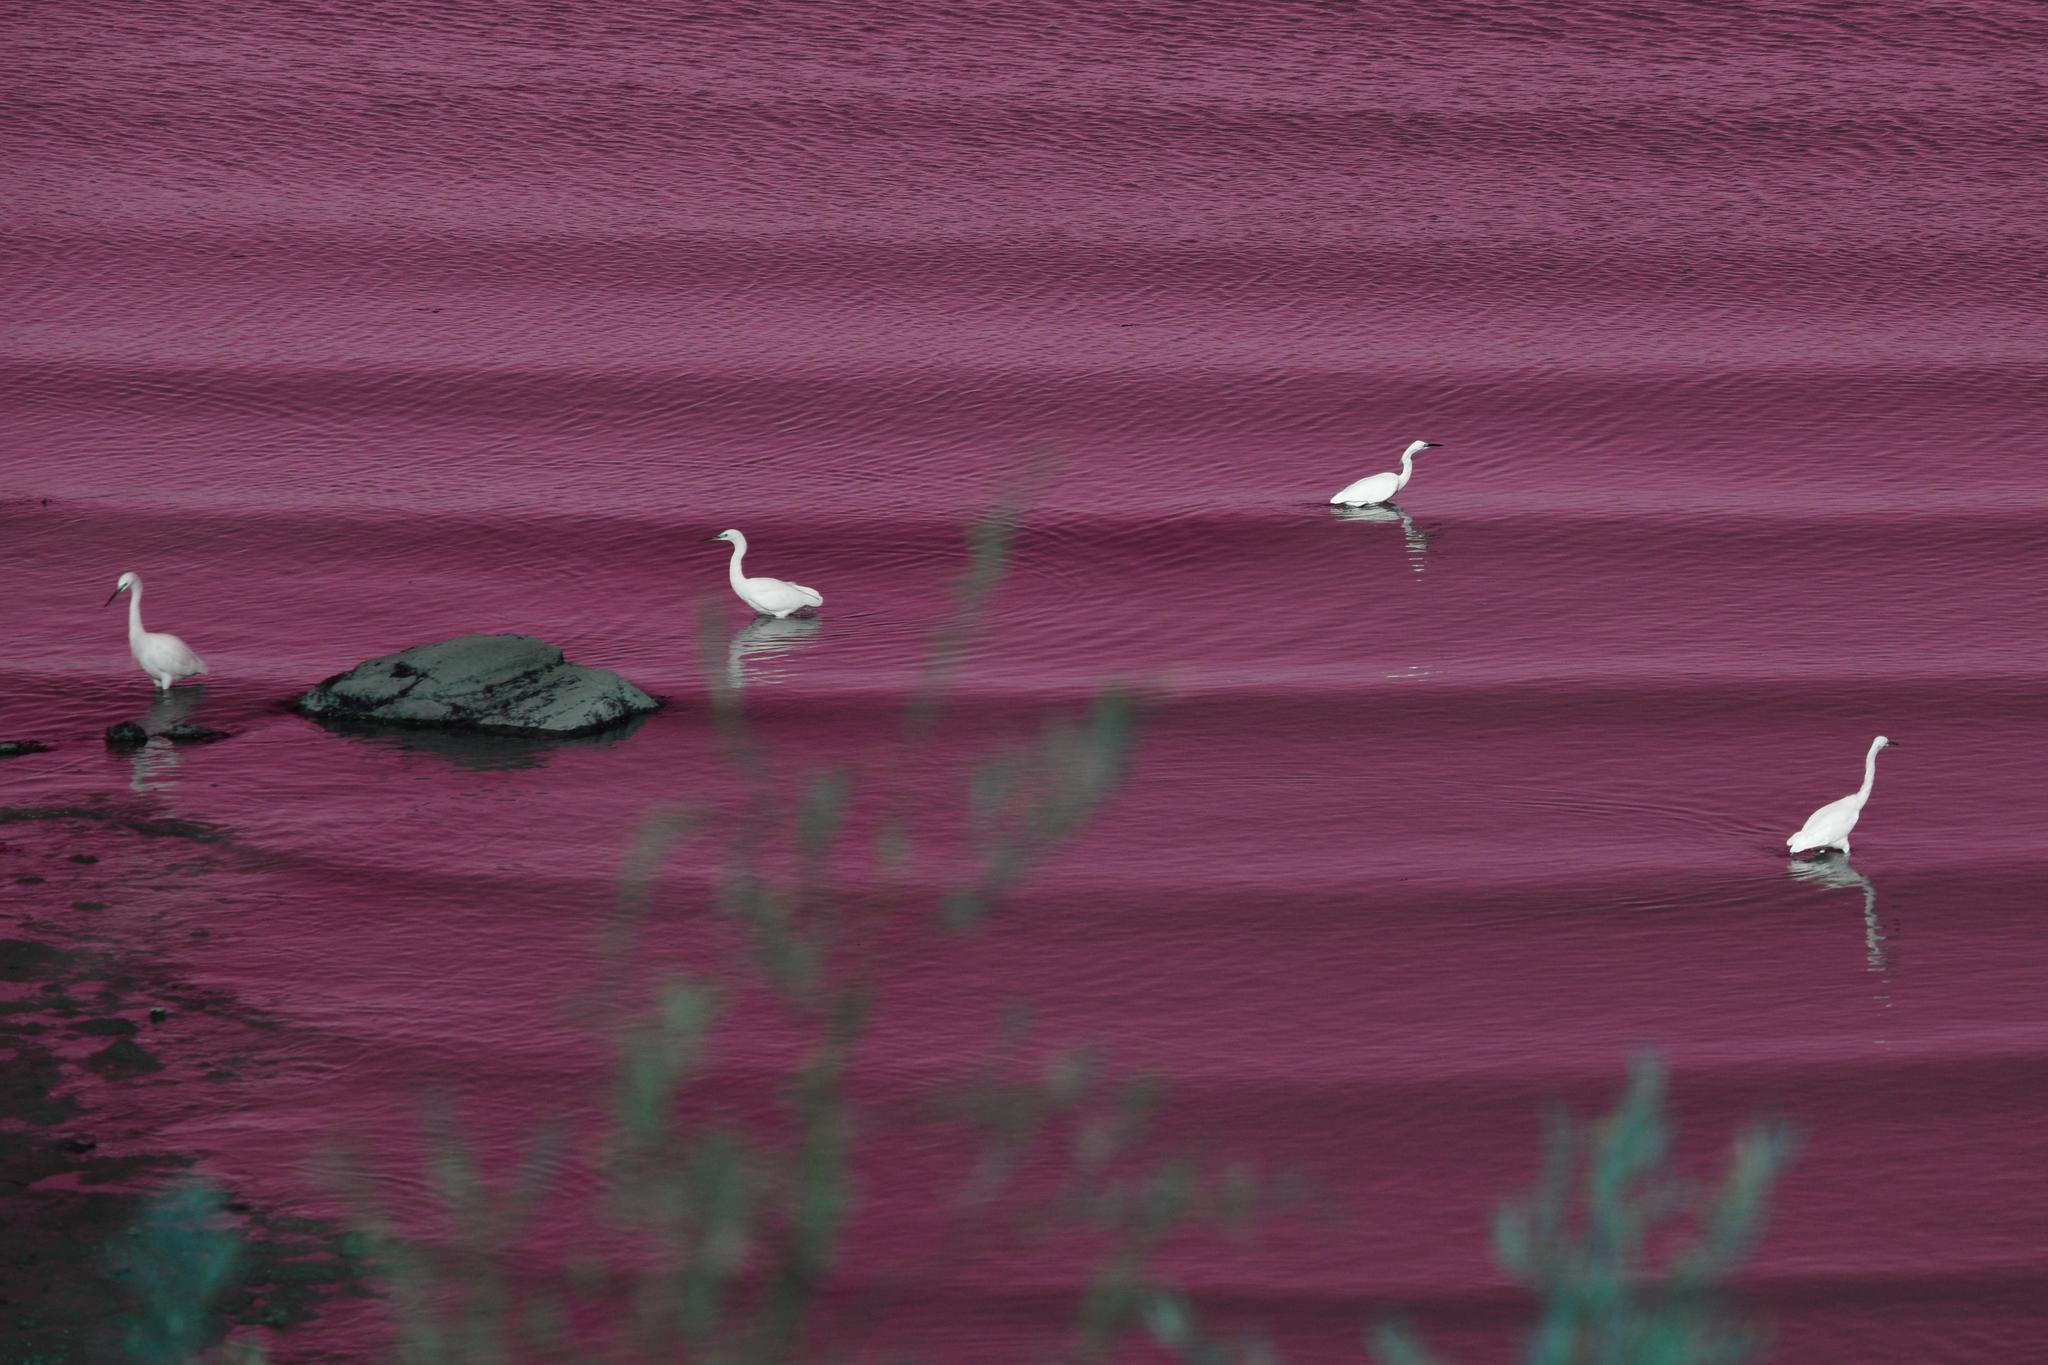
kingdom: Animalia
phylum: Chordata
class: Aves
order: Pelecaniformes
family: Ardeidae
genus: Egretta
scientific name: Egretta thula
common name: Snowy egret
